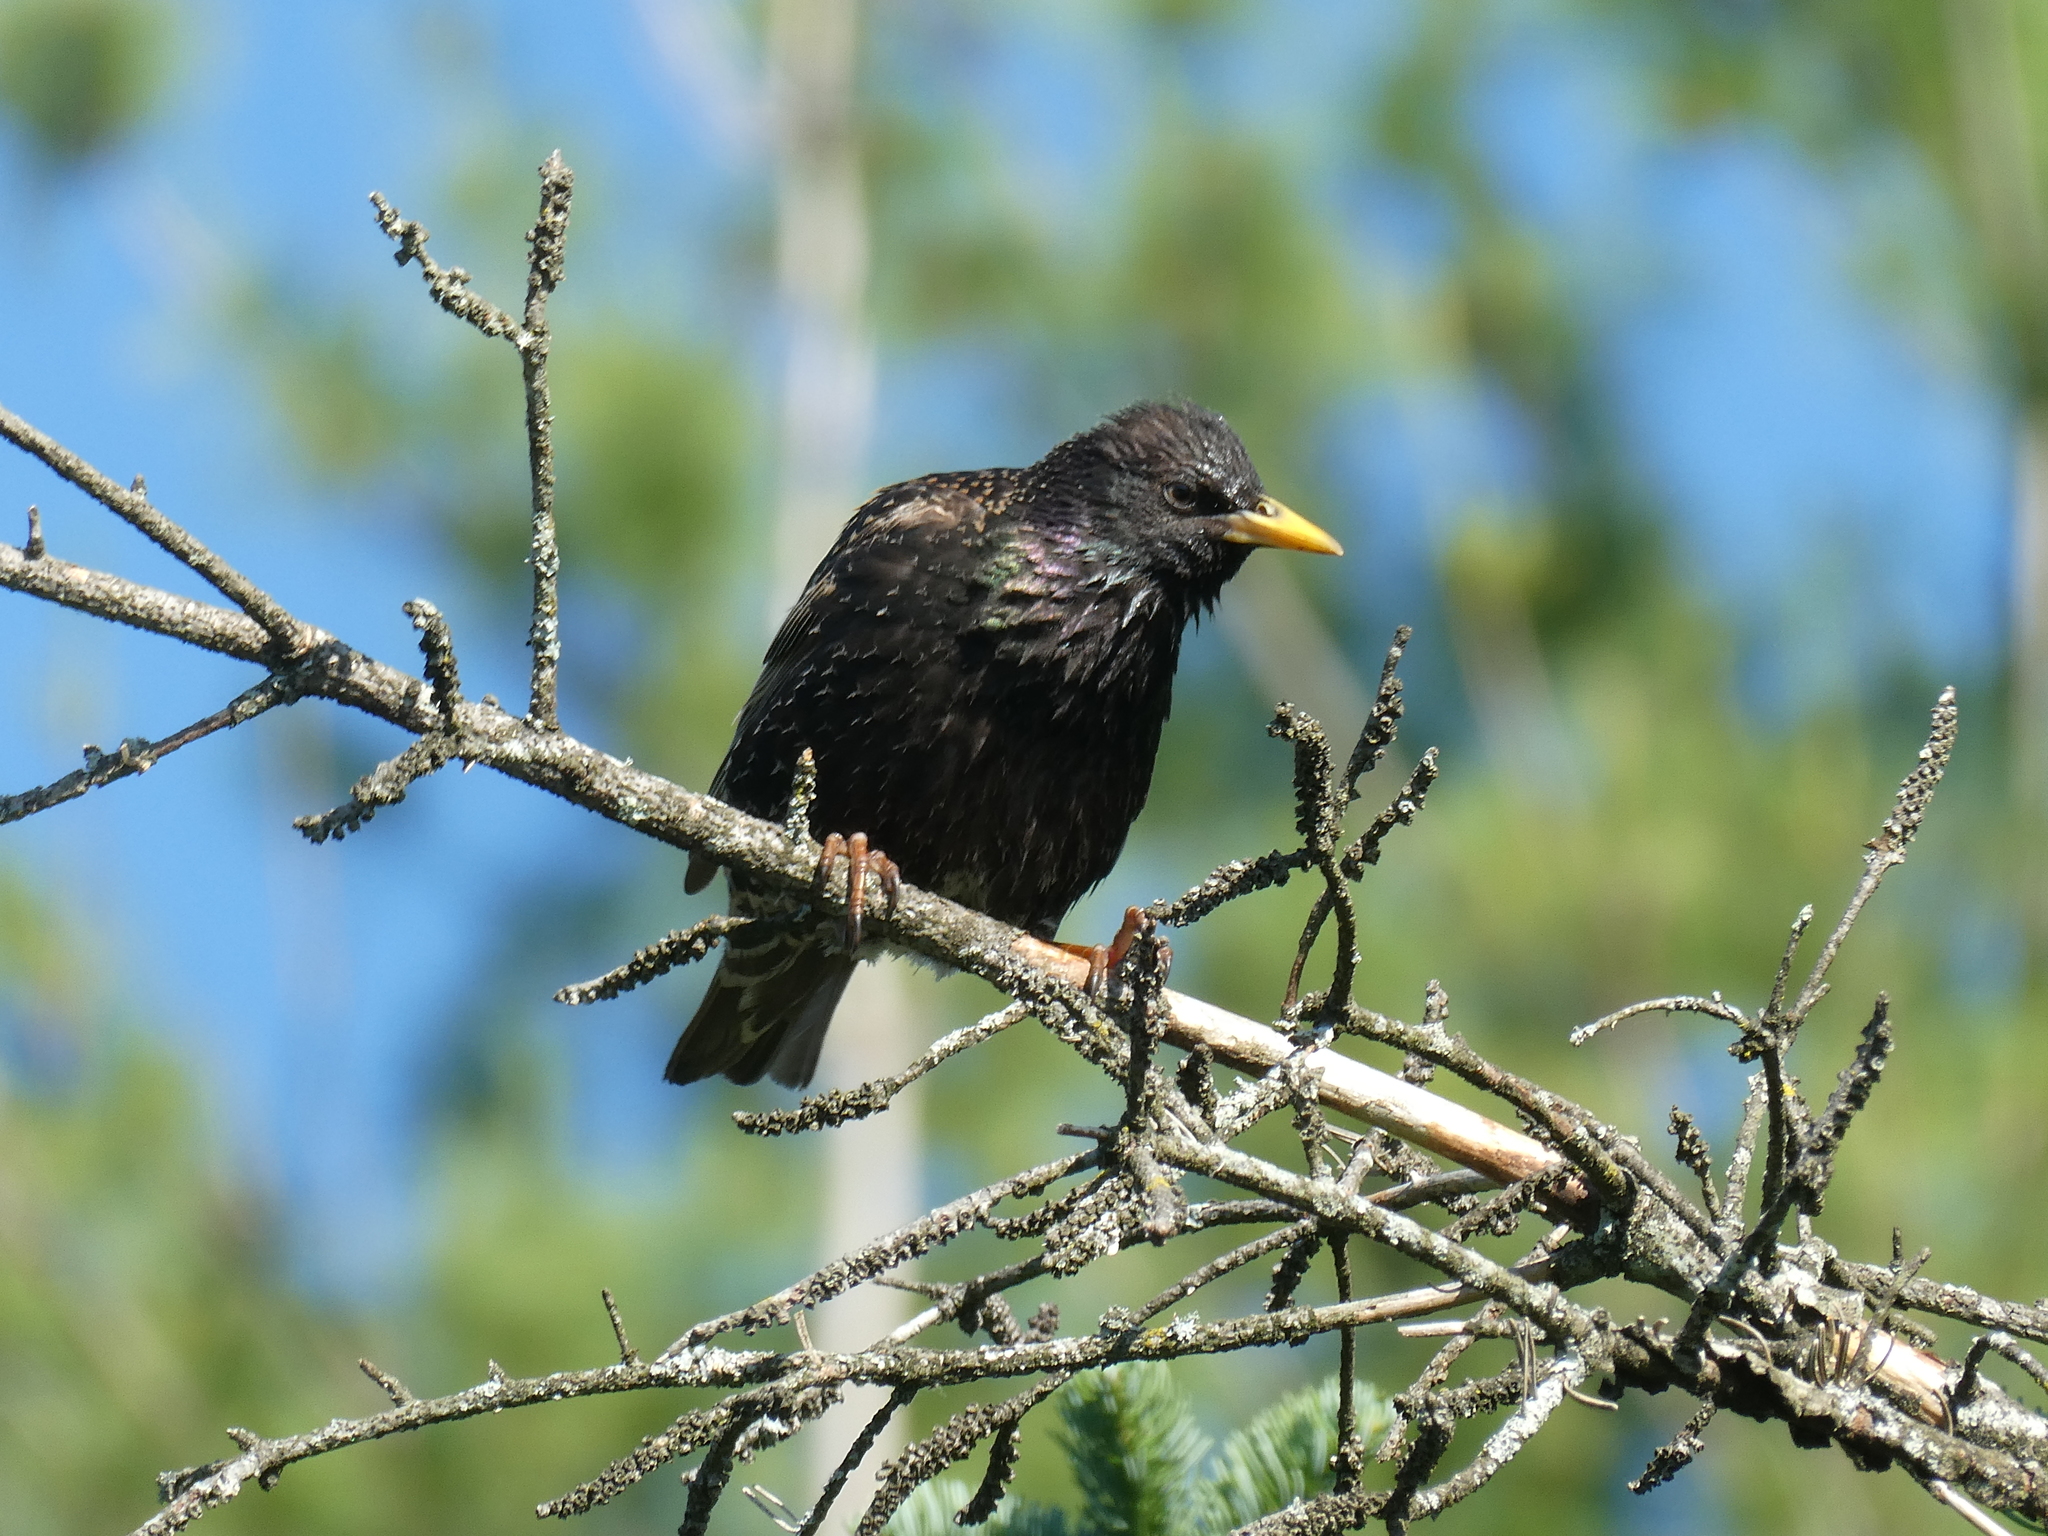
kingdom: Animalia
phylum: Chordata
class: Aves
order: Passeriformes
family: Sturnidae
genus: Sturnus
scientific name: Sturnus vulgaris
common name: Common starling
